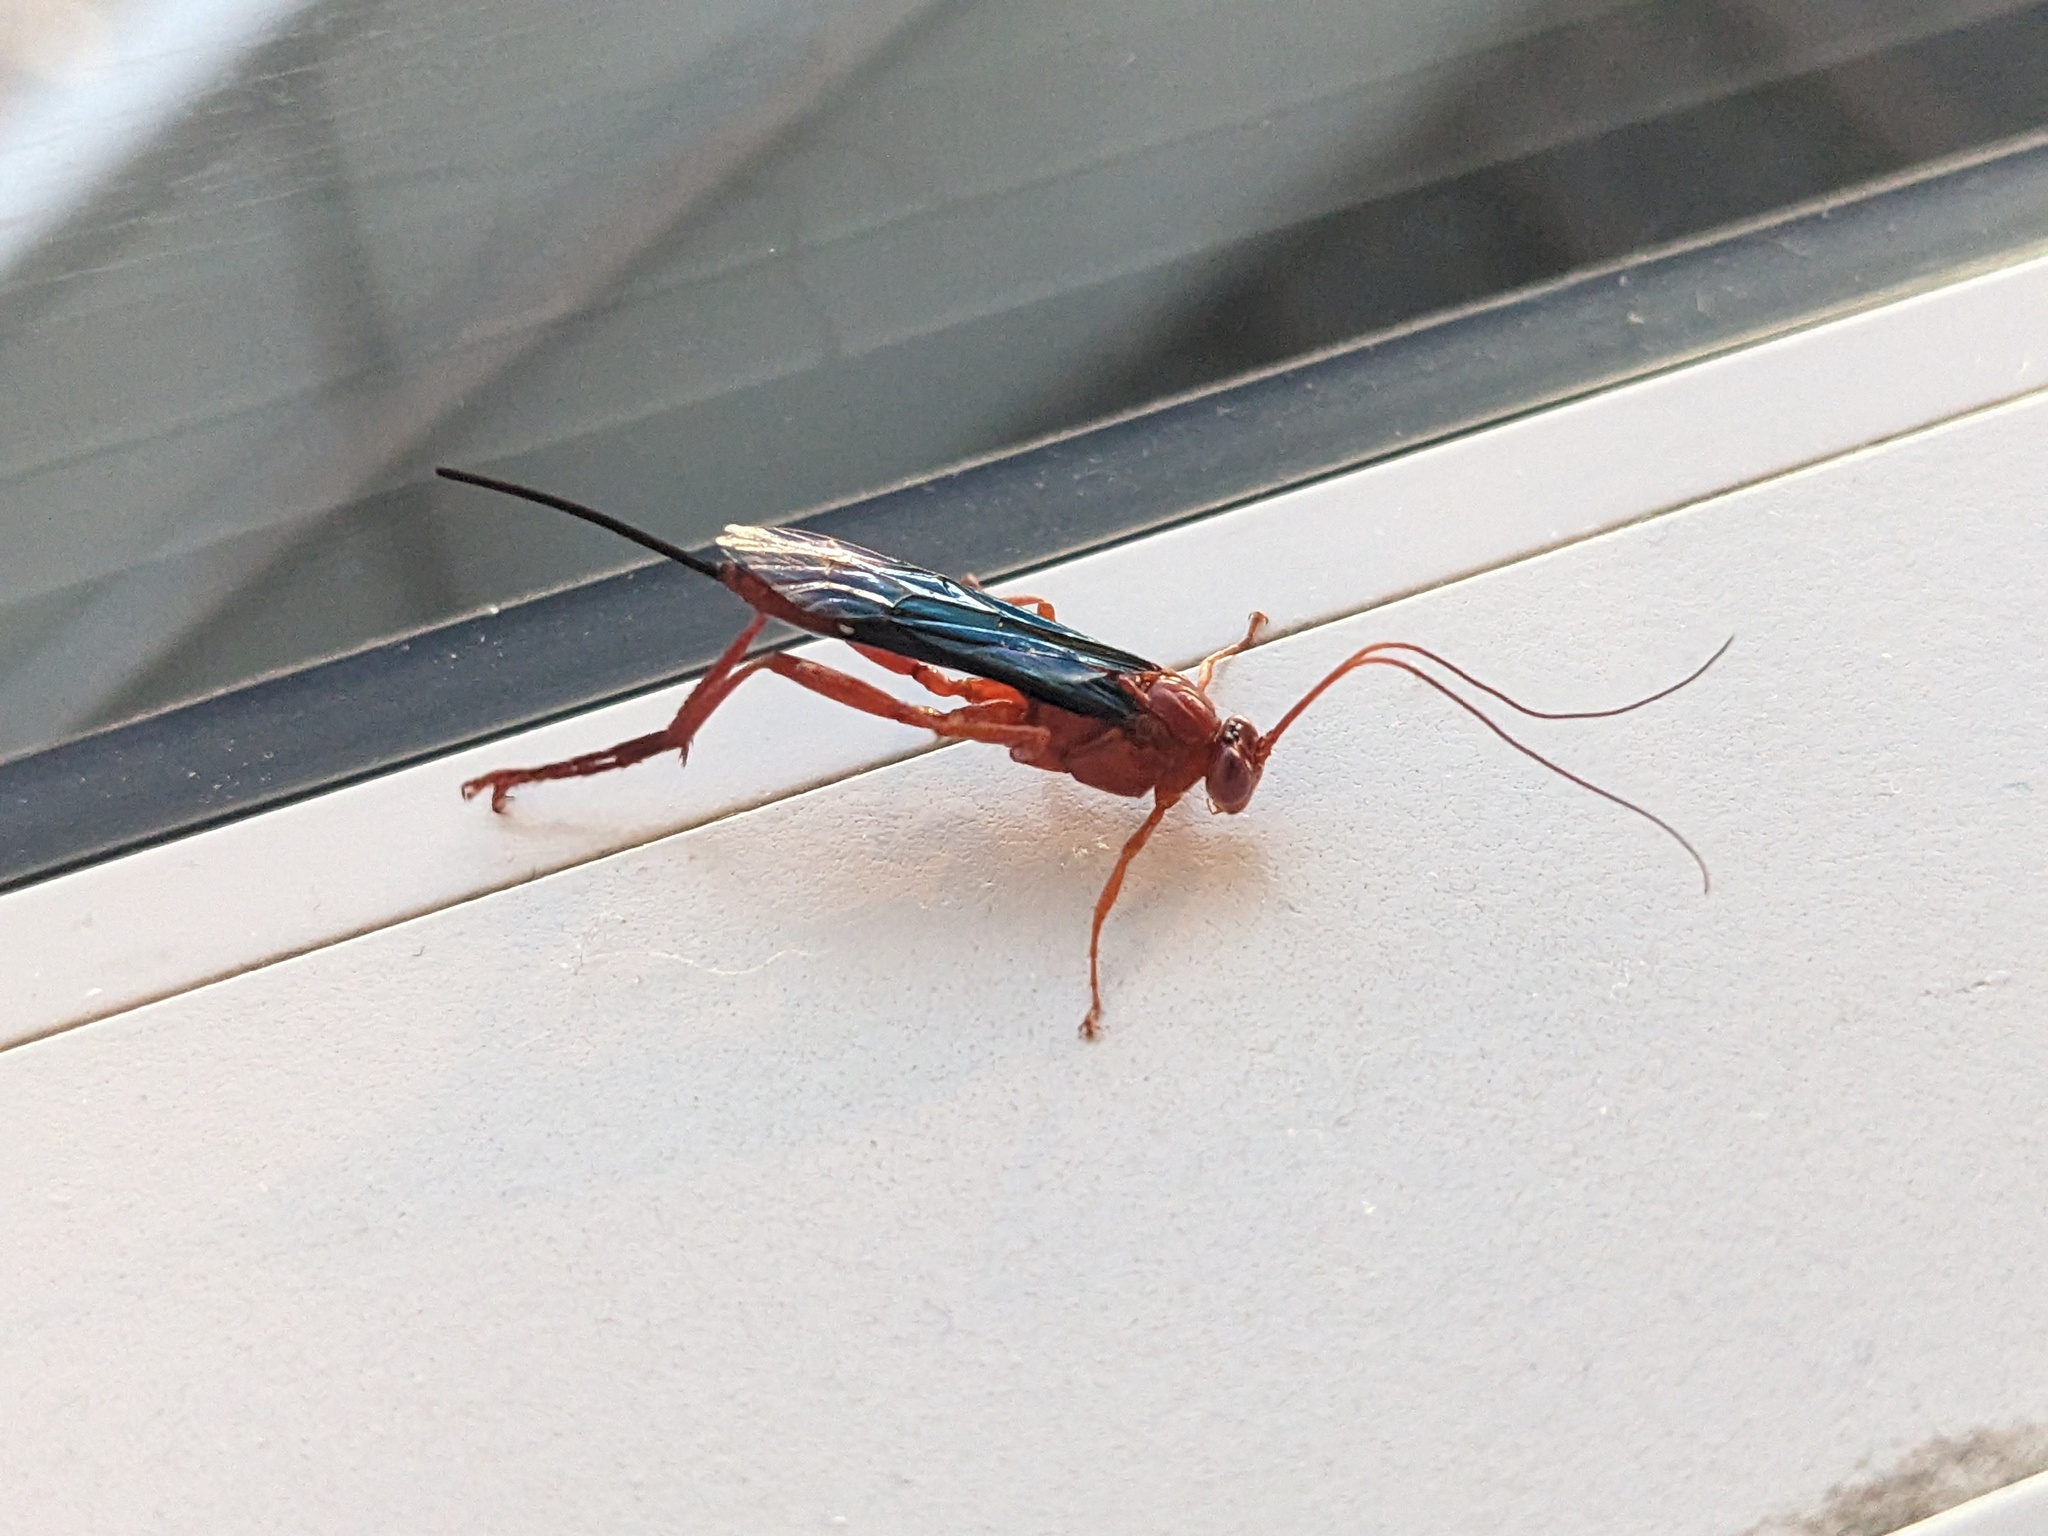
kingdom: Animalia
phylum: Arthropoda
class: Insecta
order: Hymenoptera
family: Ichneumonidae
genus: Lissopimpla
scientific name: Lissopimpla excelsa
